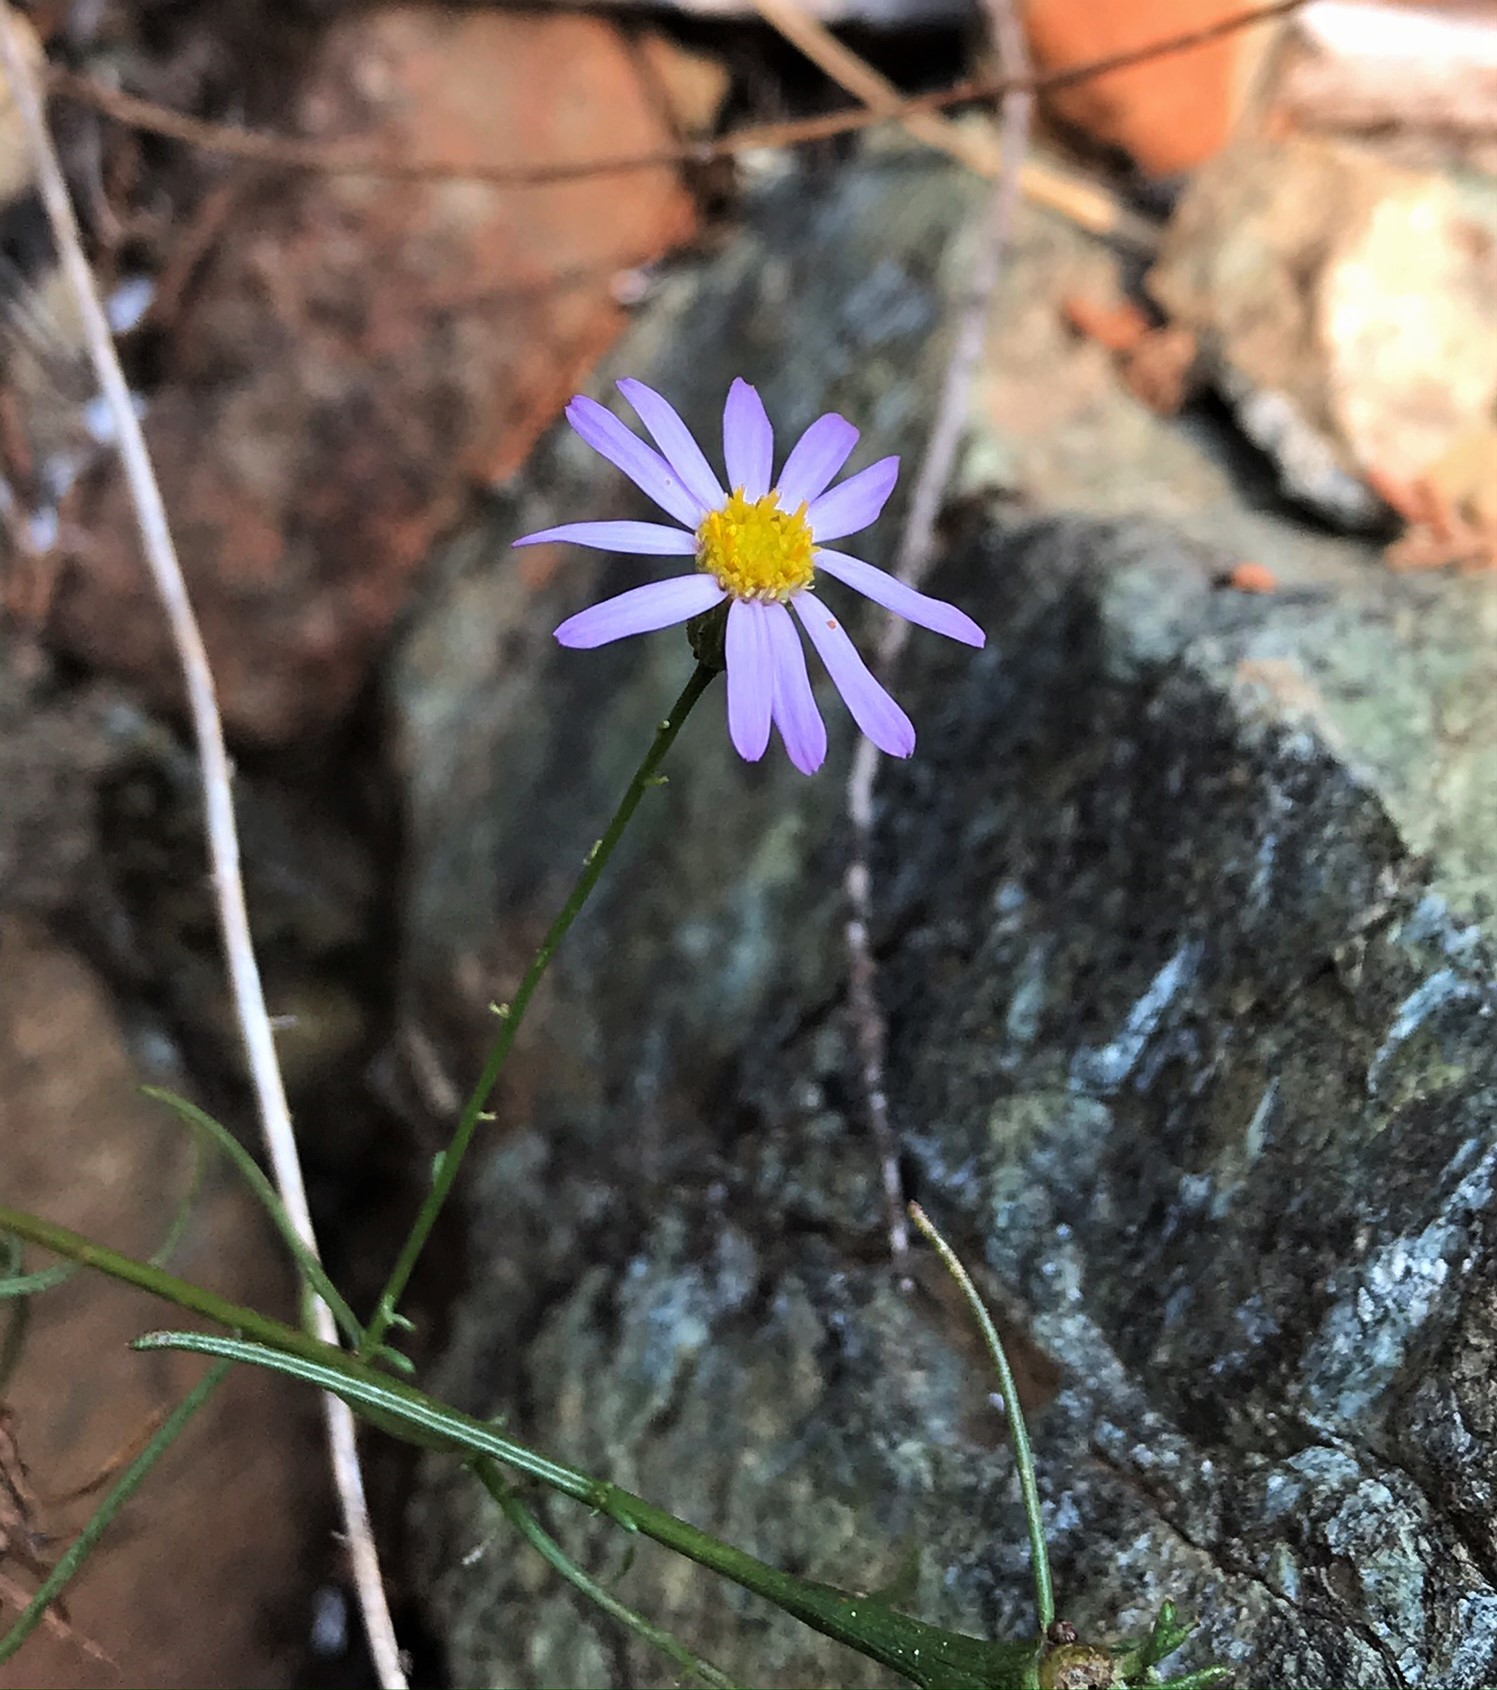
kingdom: Plantae
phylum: Tracheophyta
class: Magnoliopsida
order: Asterales
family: Asteraceae
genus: Erigeron
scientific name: Erigeron serpentinus
